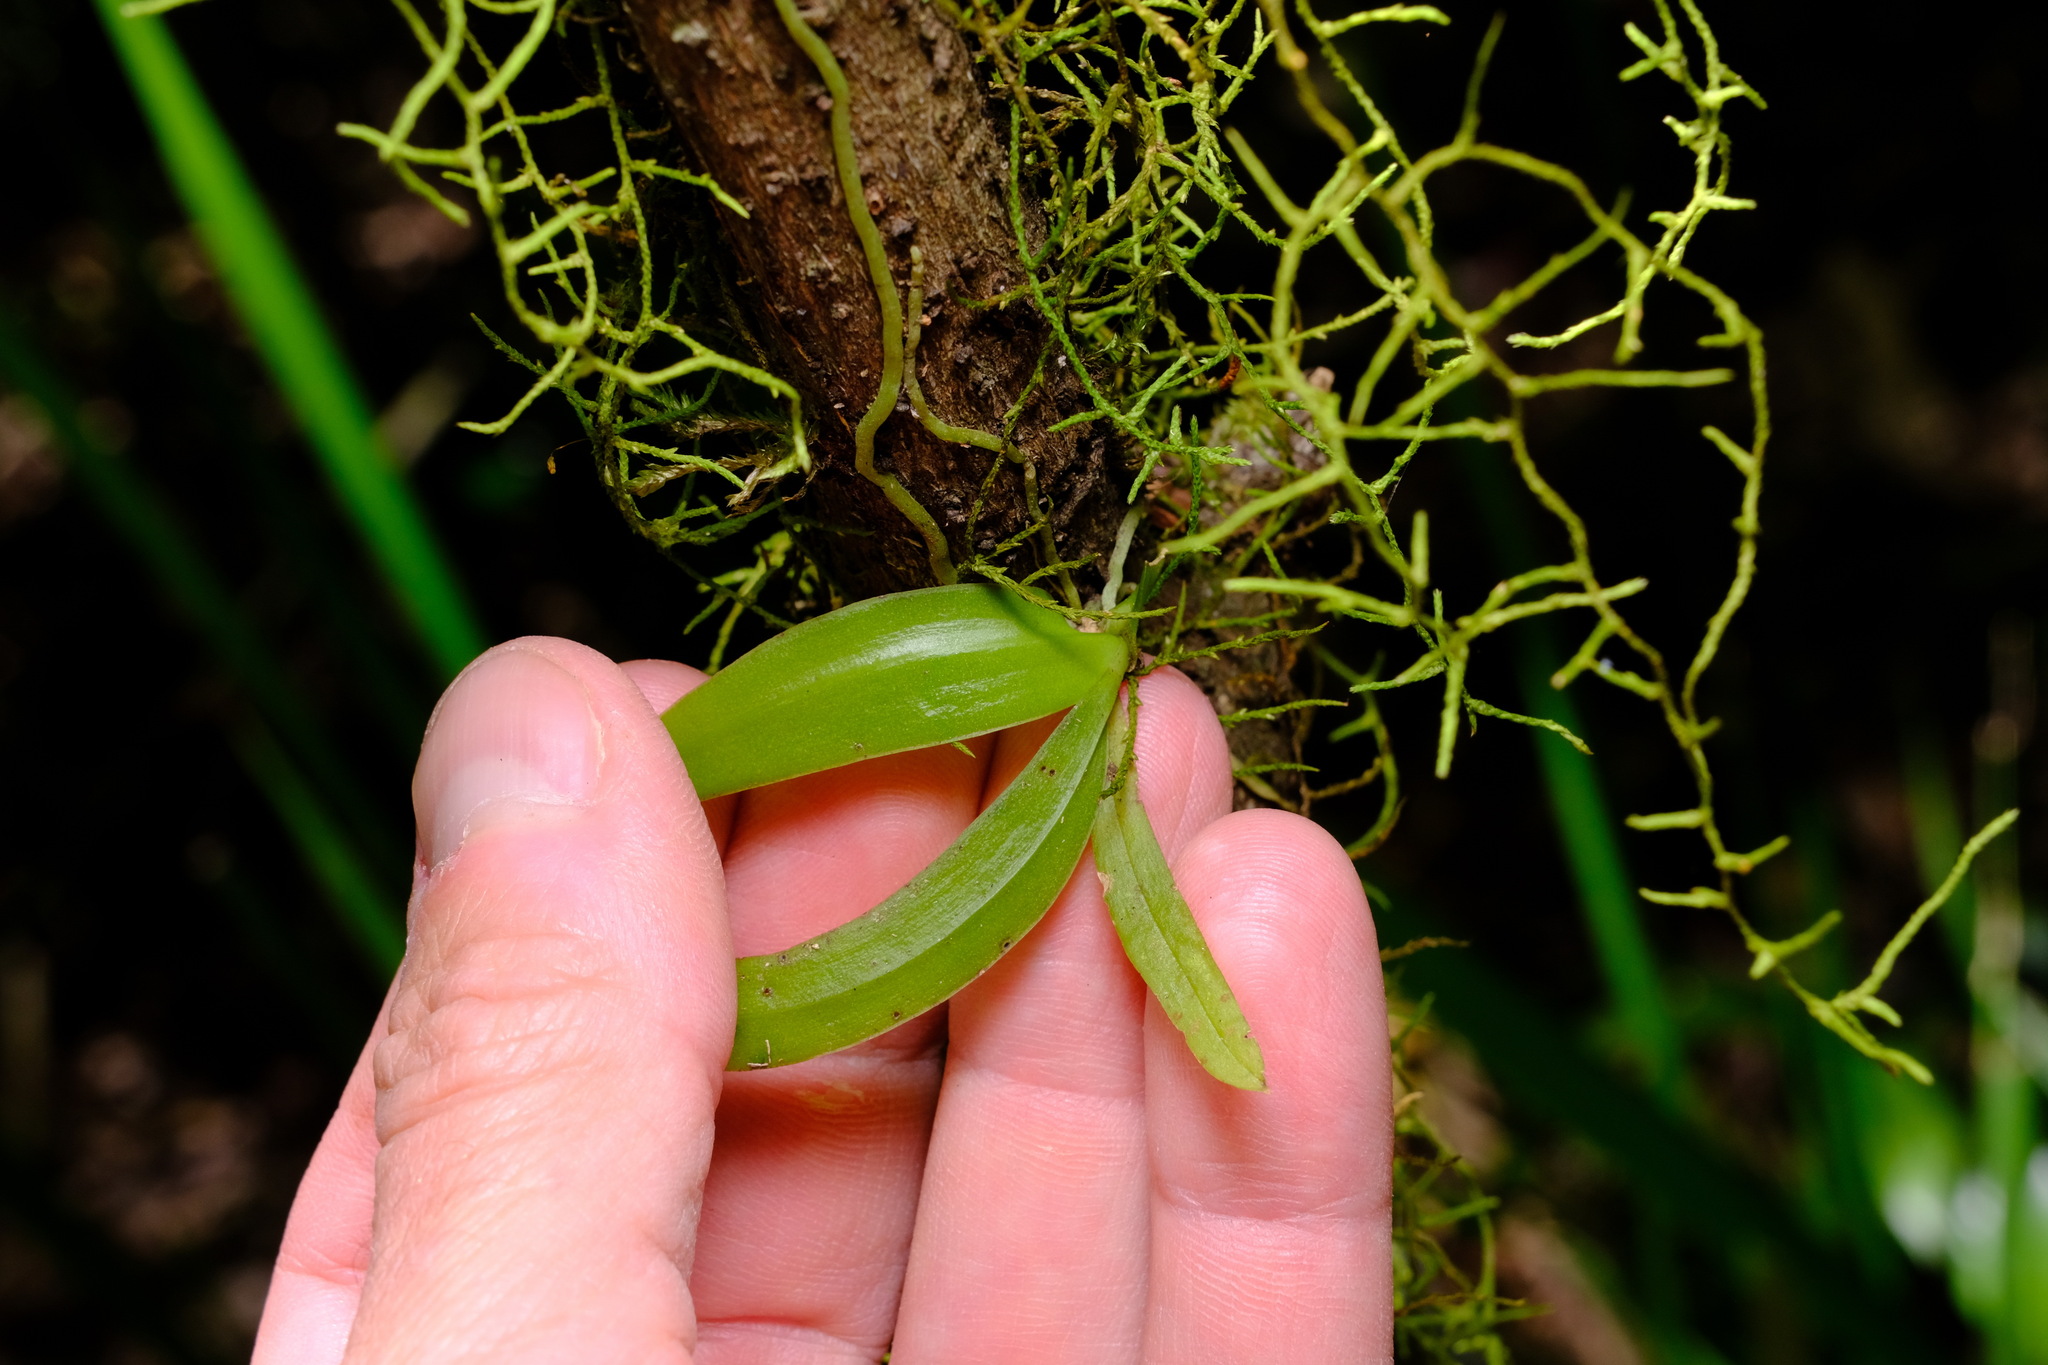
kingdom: Plantae
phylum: Tracheophyta
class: Liliopsida
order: Asparagales
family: Orchidaceae
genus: Sarcochilus
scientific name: Sarcochilus falcatus
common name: Orange blossom orchid
